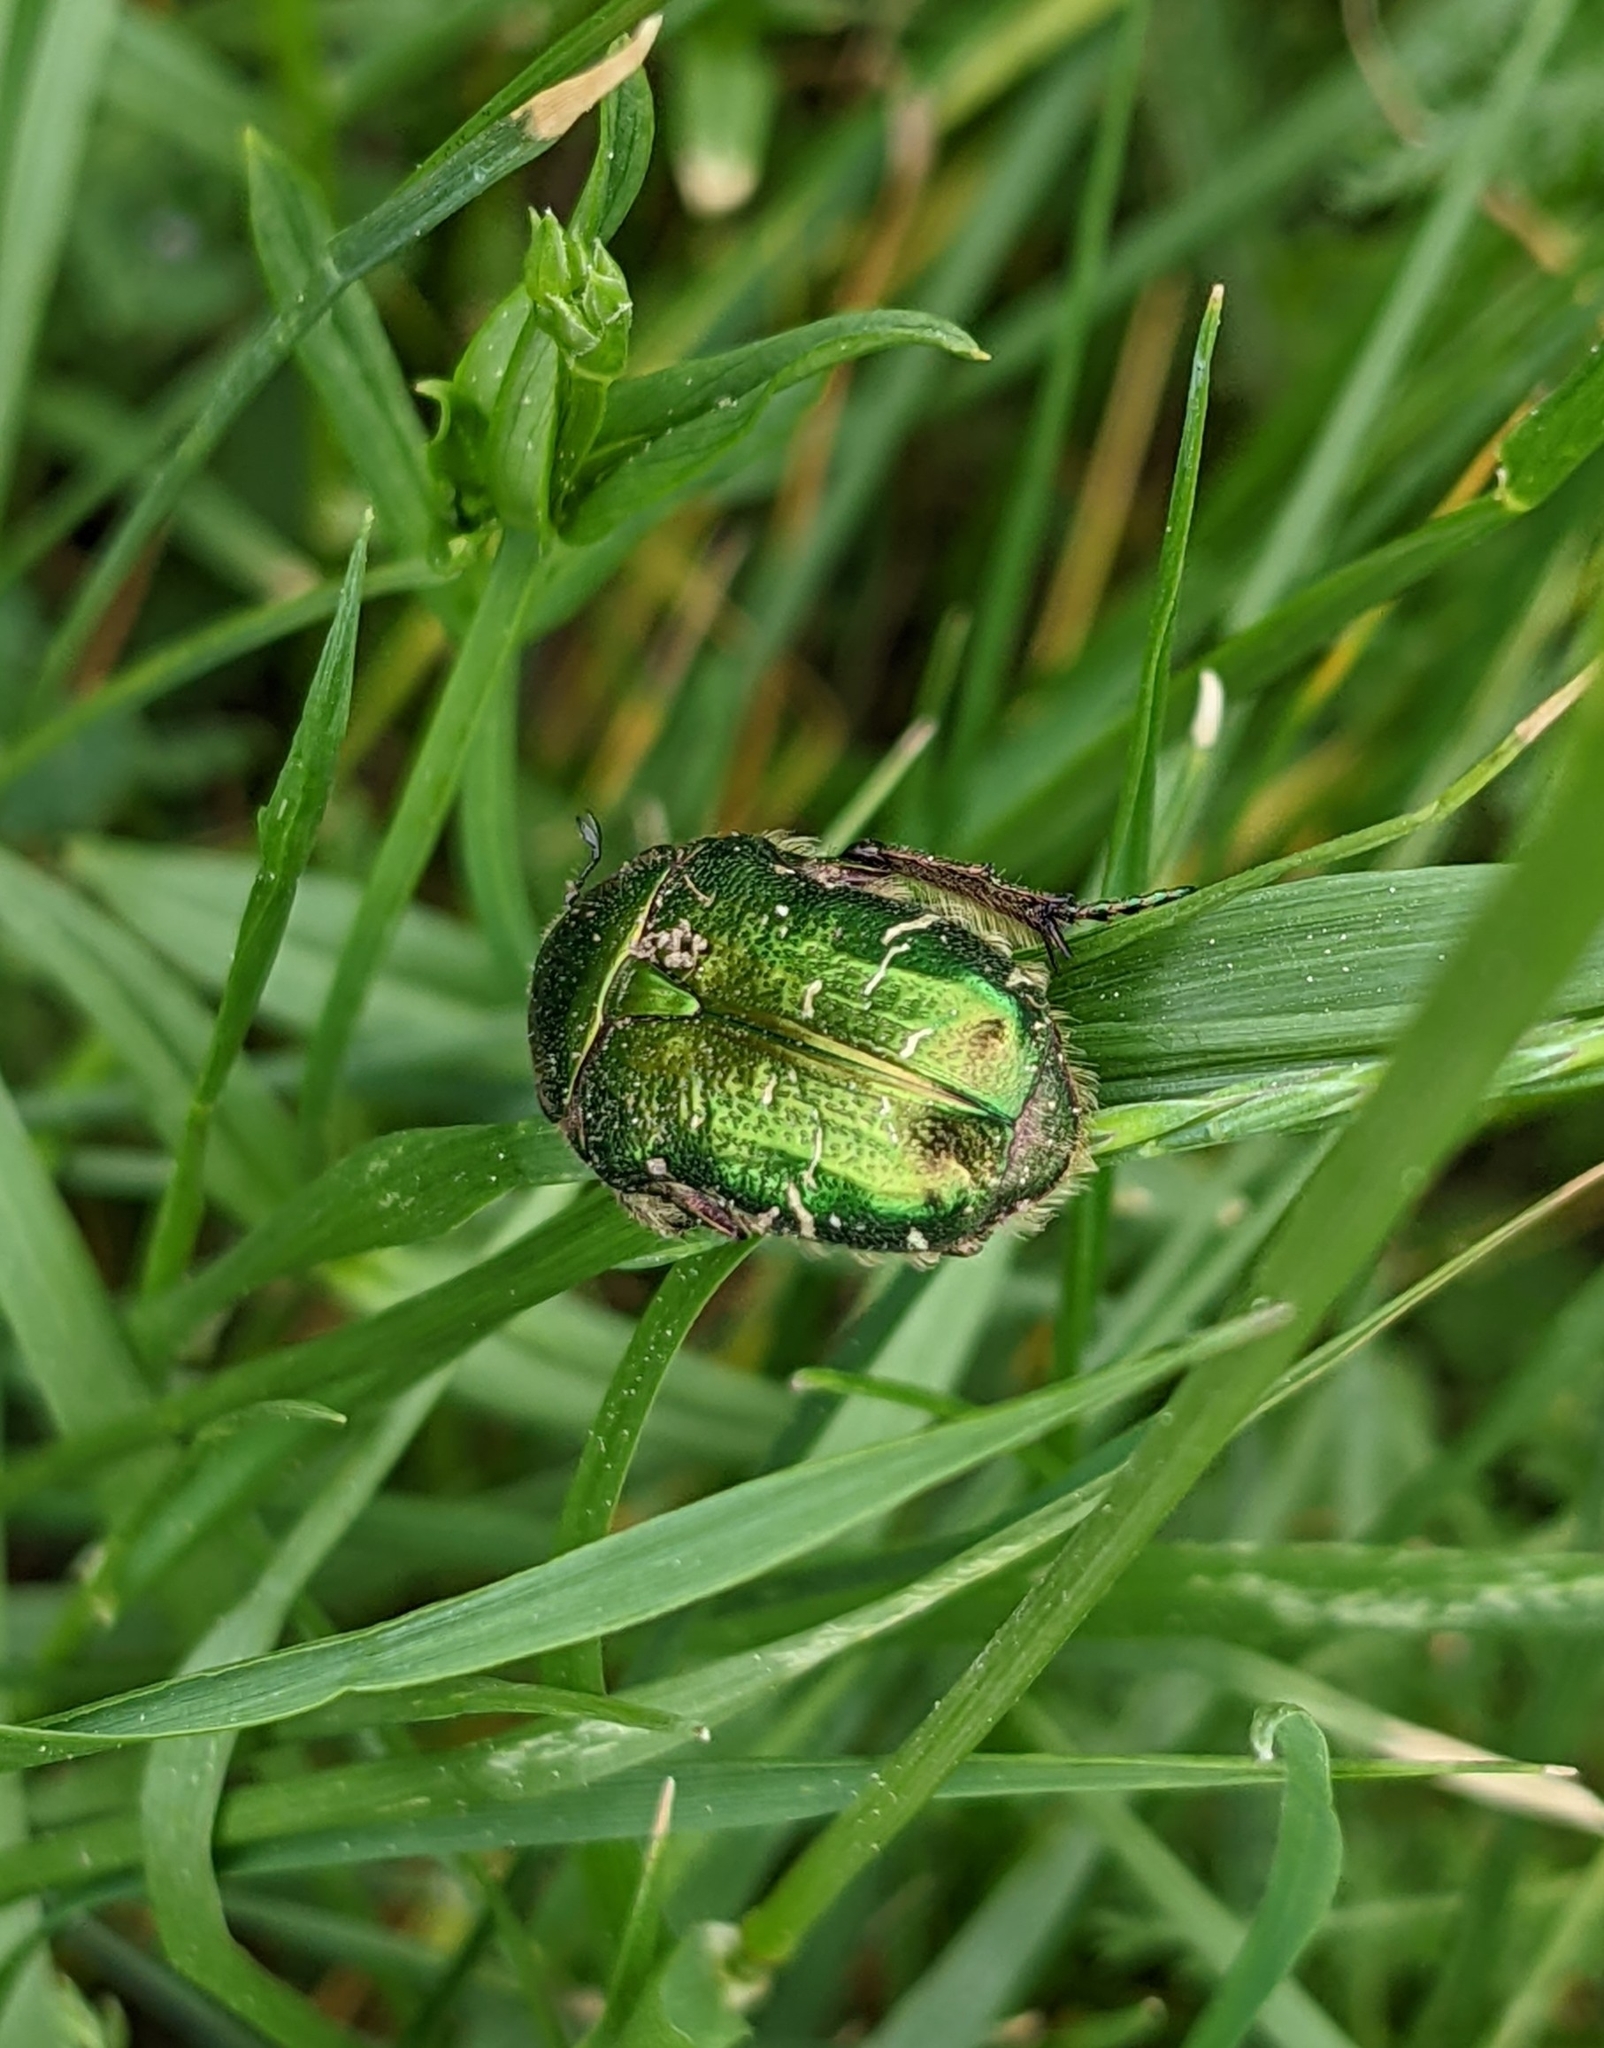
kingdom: Animalia
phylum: Arthropoda
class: Insecta
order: Coleoptera
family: Scarabaeidae
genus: Cetonia
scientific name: Cetonia aurata
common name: Rose chafer
